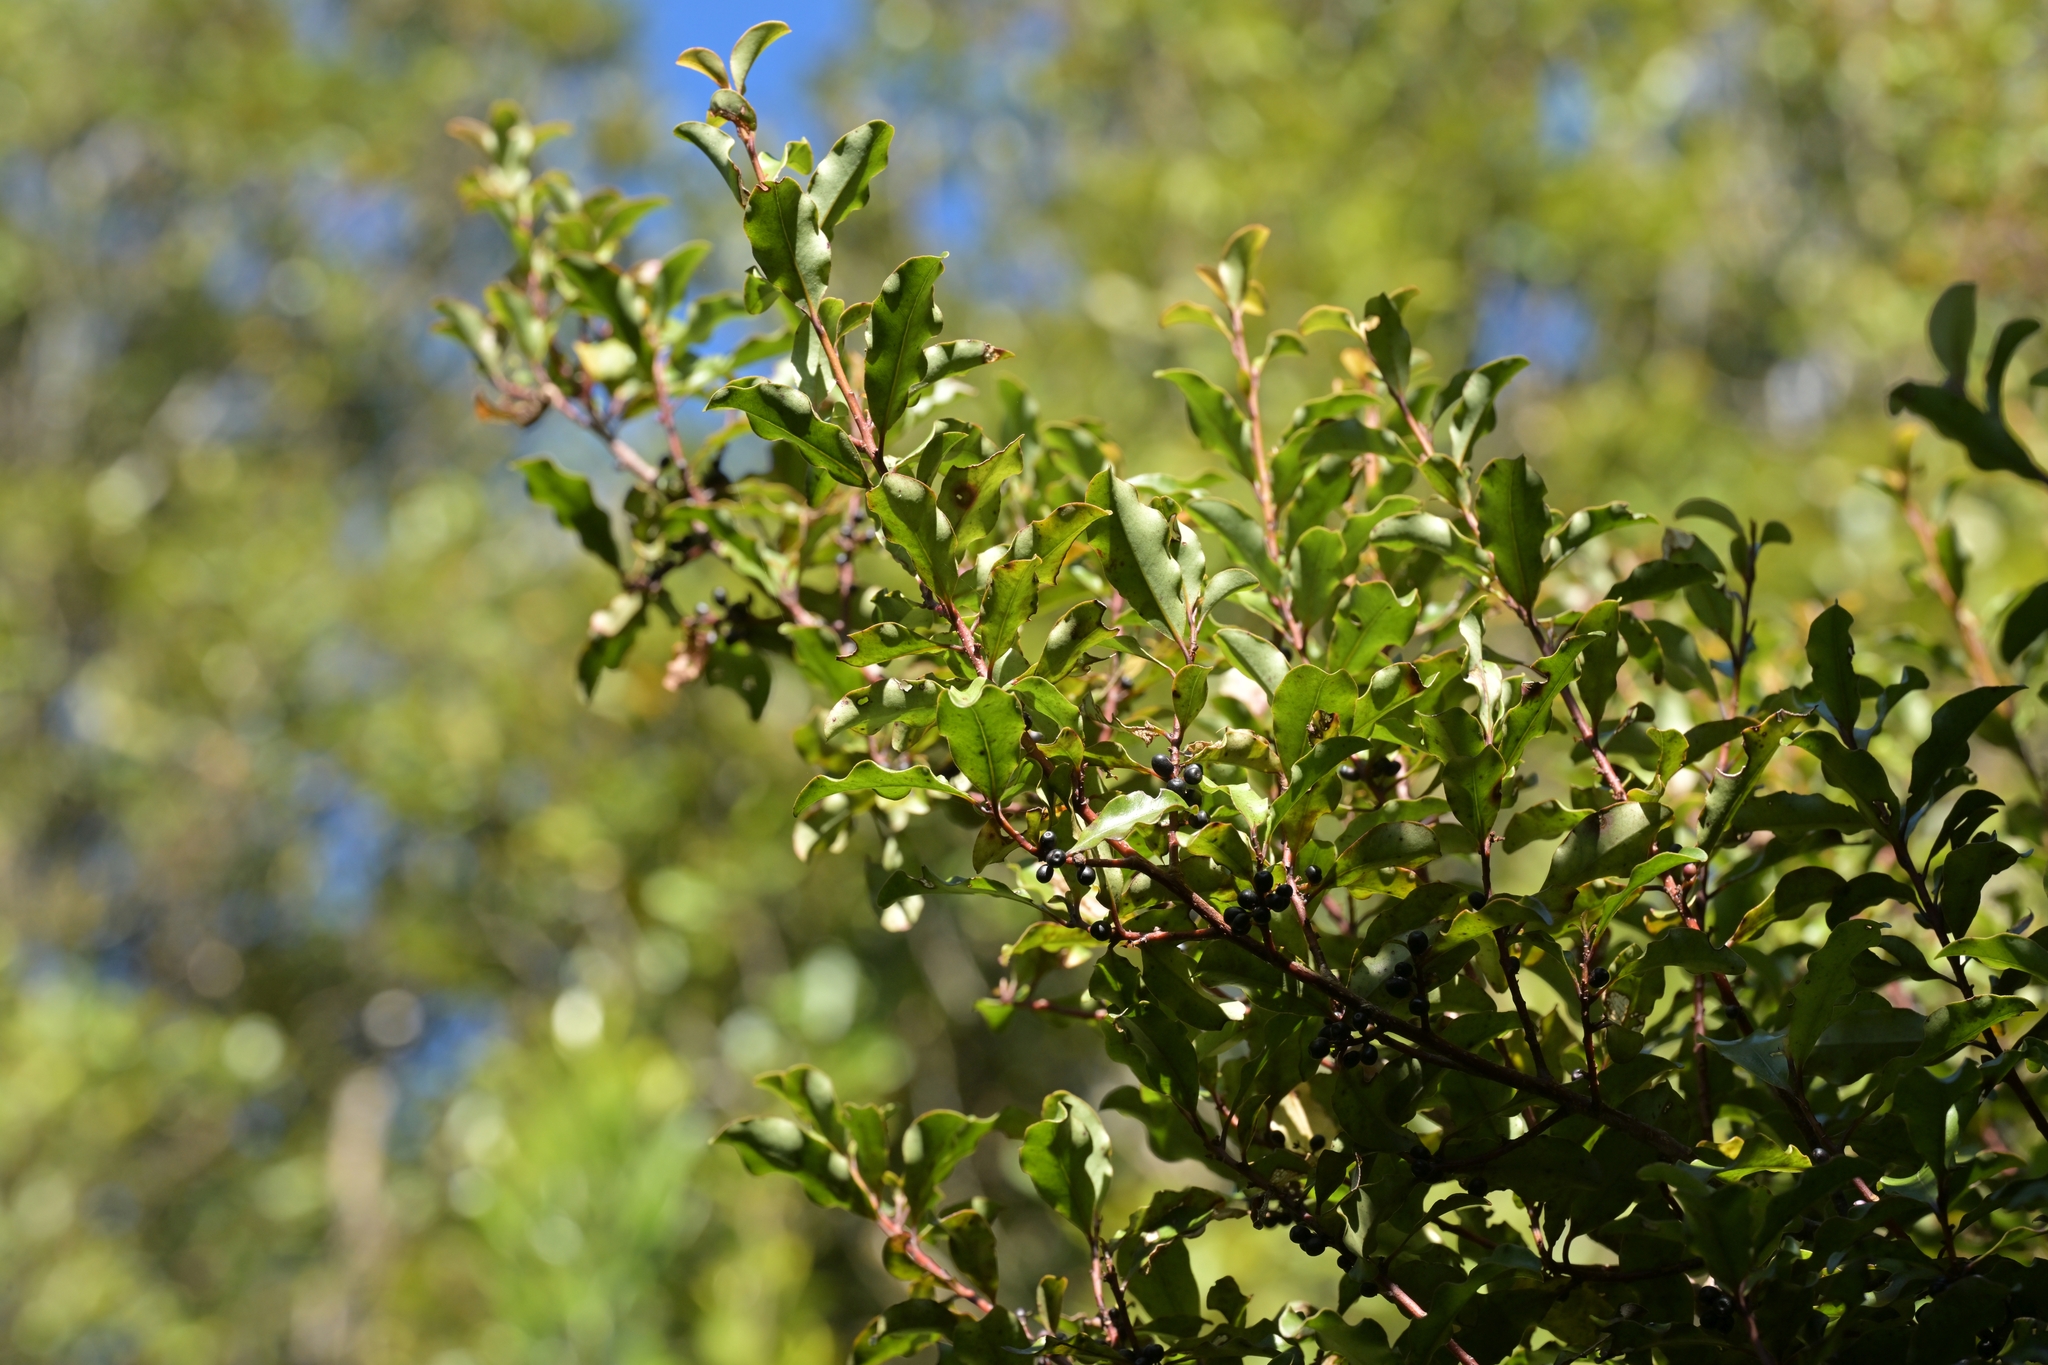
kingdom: Plantae
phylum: Tracheophyta
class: Magnoliopsida
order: Ericales
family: Primulaceae
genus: Myrsine
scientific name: Myrsine australis
